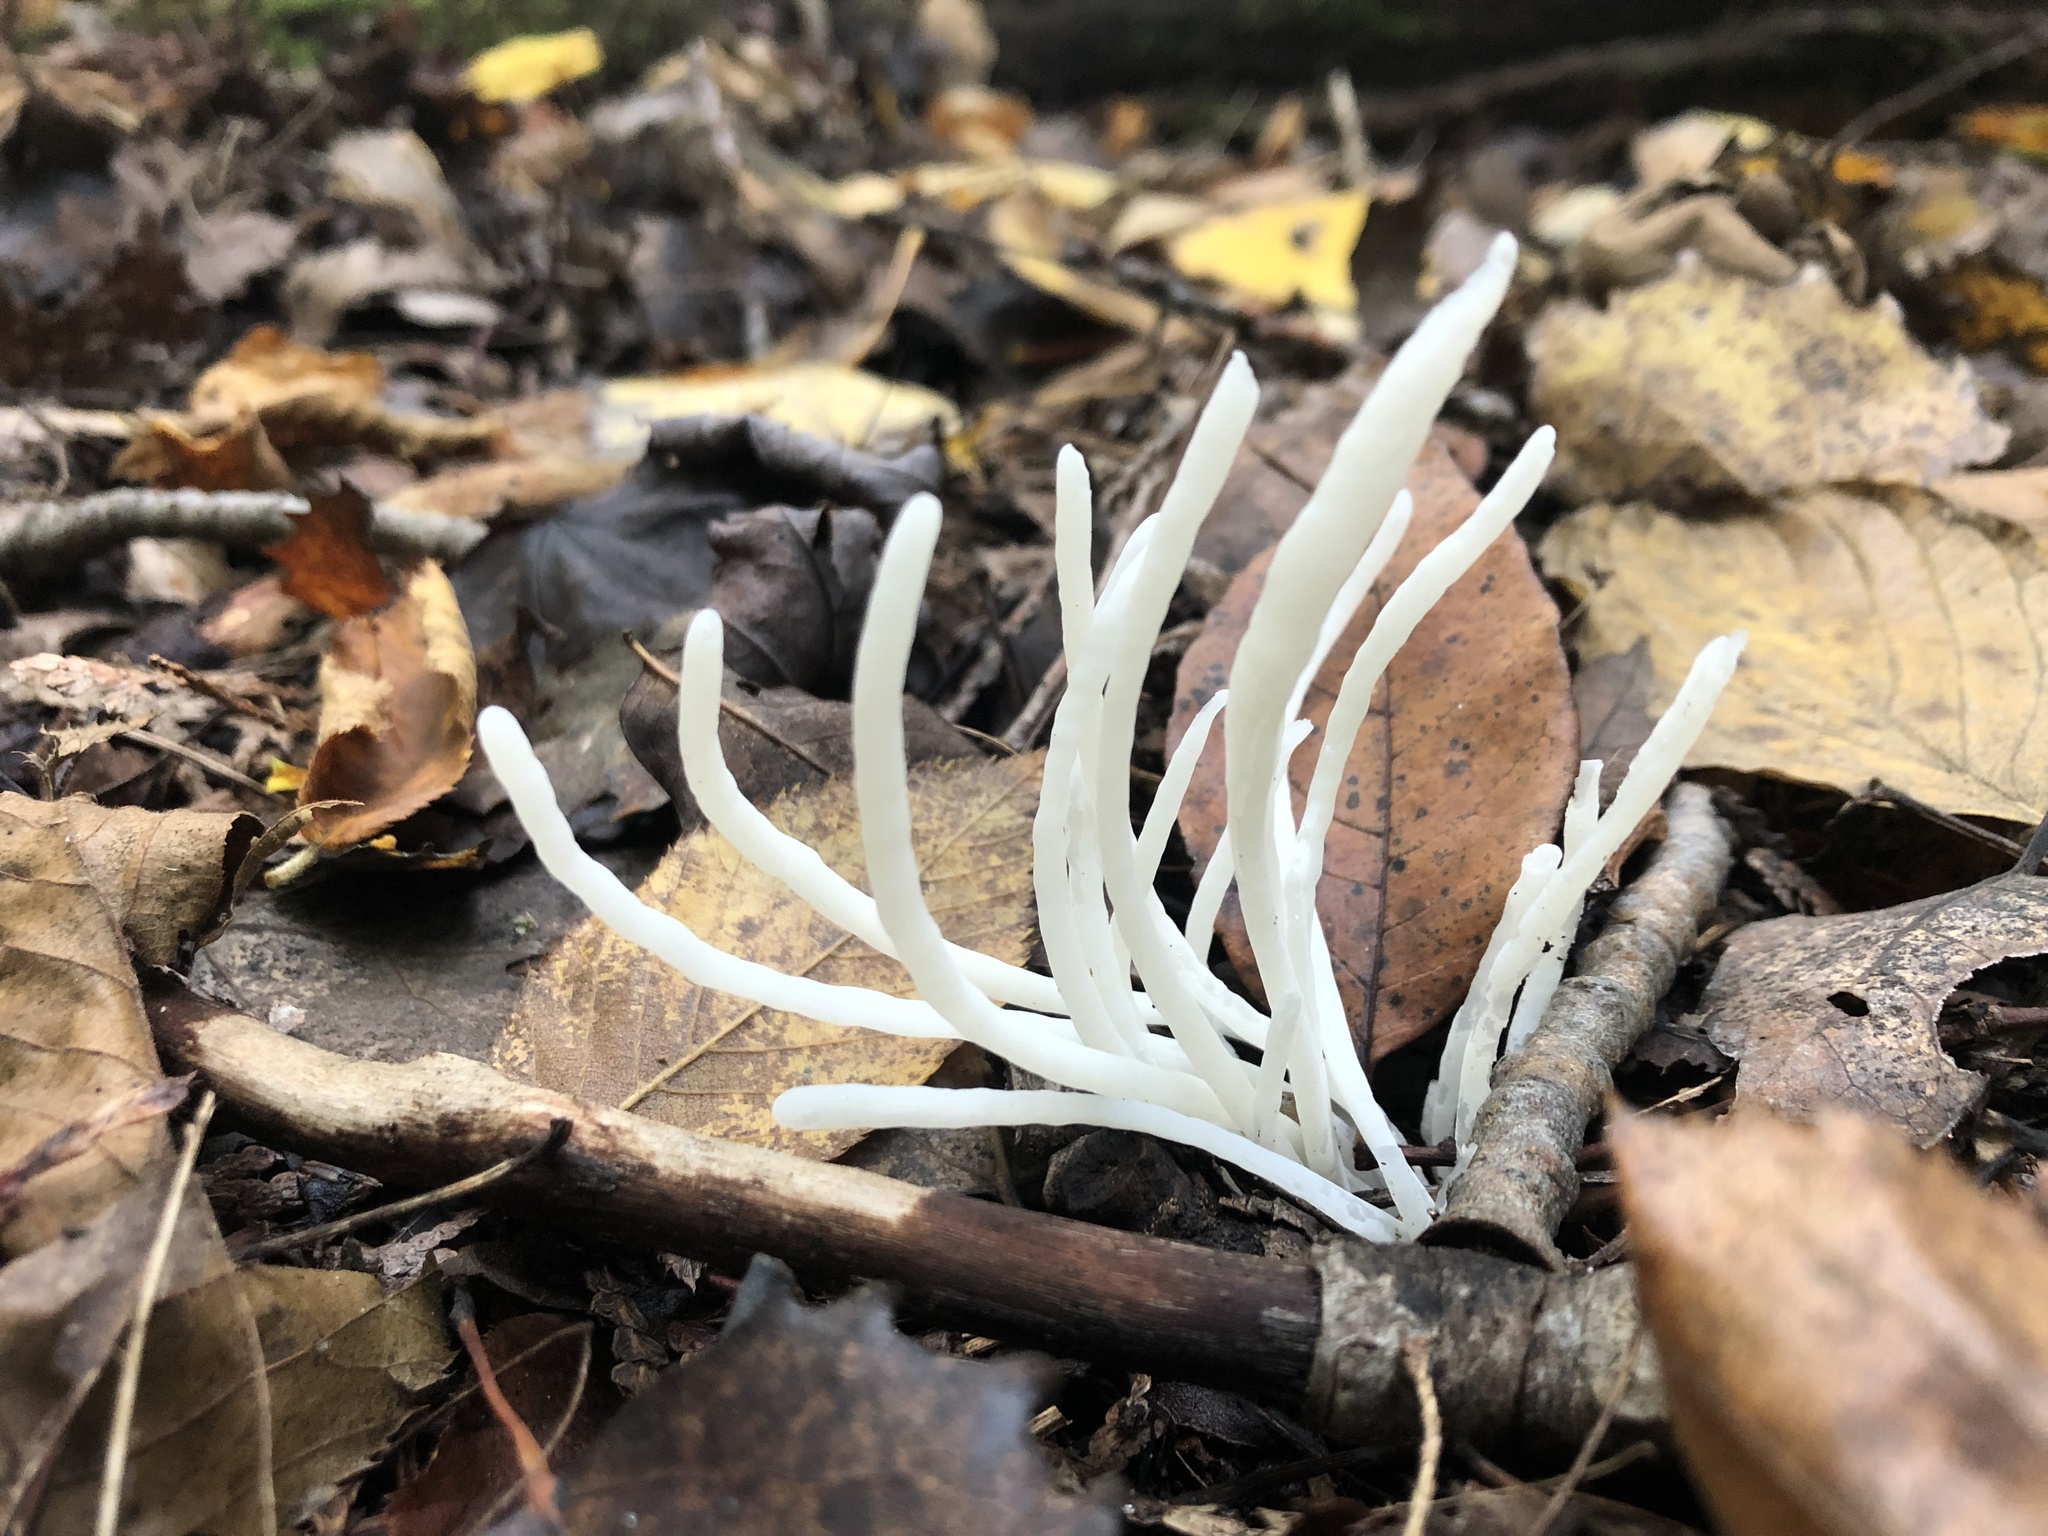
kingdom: Fungi
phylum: Basidiomycota
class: Agaricomycetes
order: Agaricales
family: Clavariaceae
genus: Clavaria
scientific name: Clavaria fragilis
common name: White spindles
